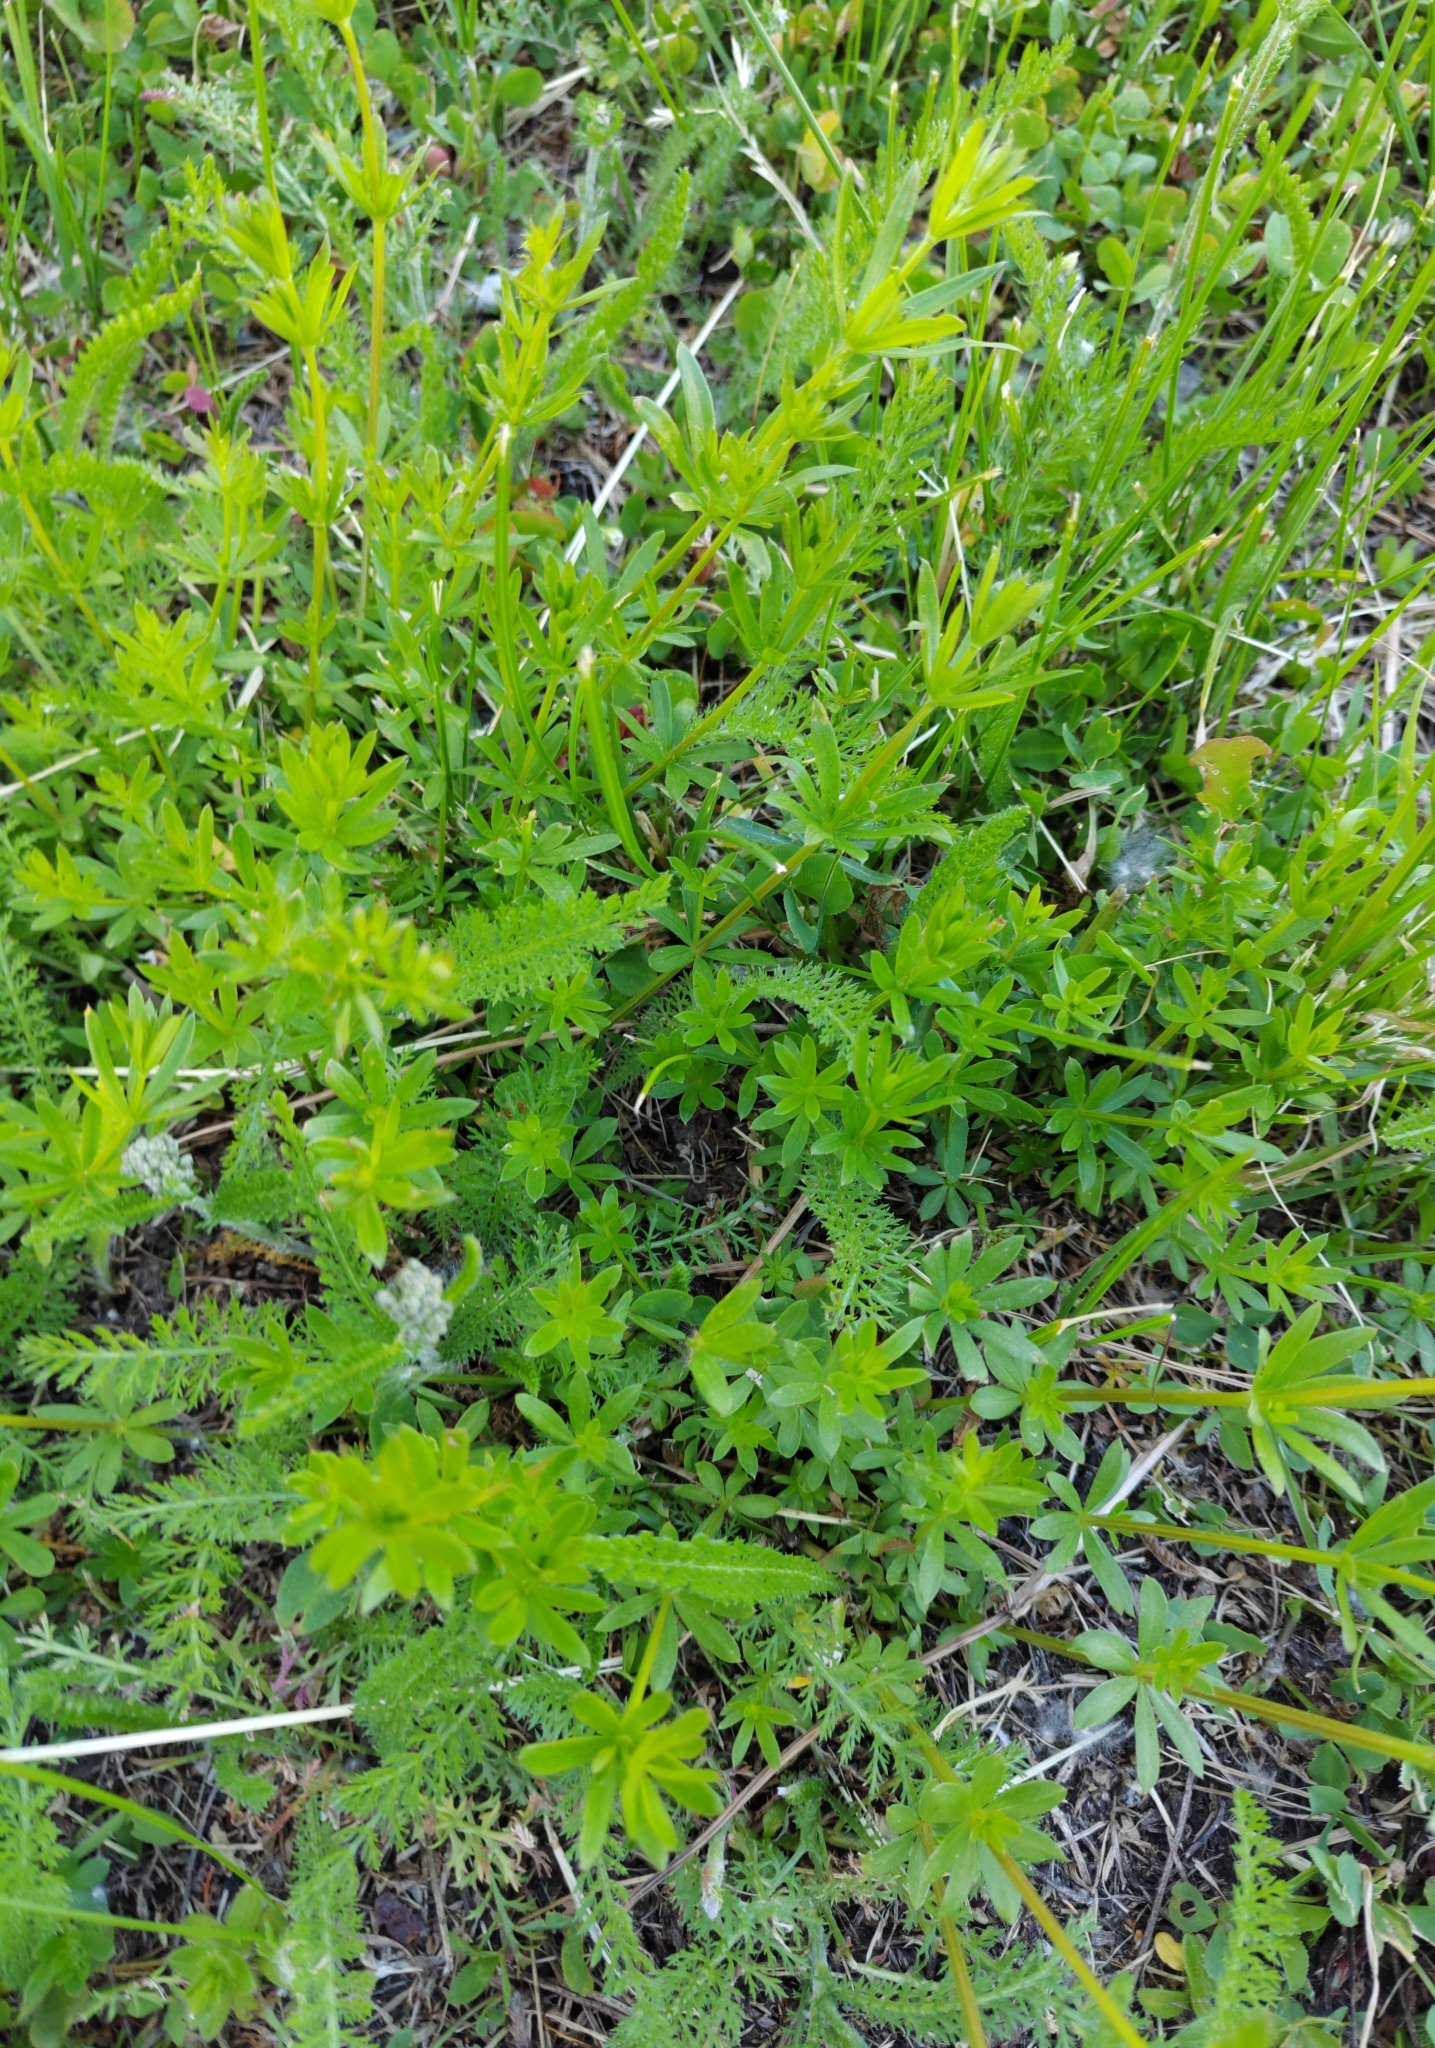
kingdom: Plantae
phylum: Tracheophyta
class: Magnoliopsida
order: Gentianales
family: Rubiaceae
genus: Galium
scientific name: Galium mollugo
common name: Hedge bedstraw
